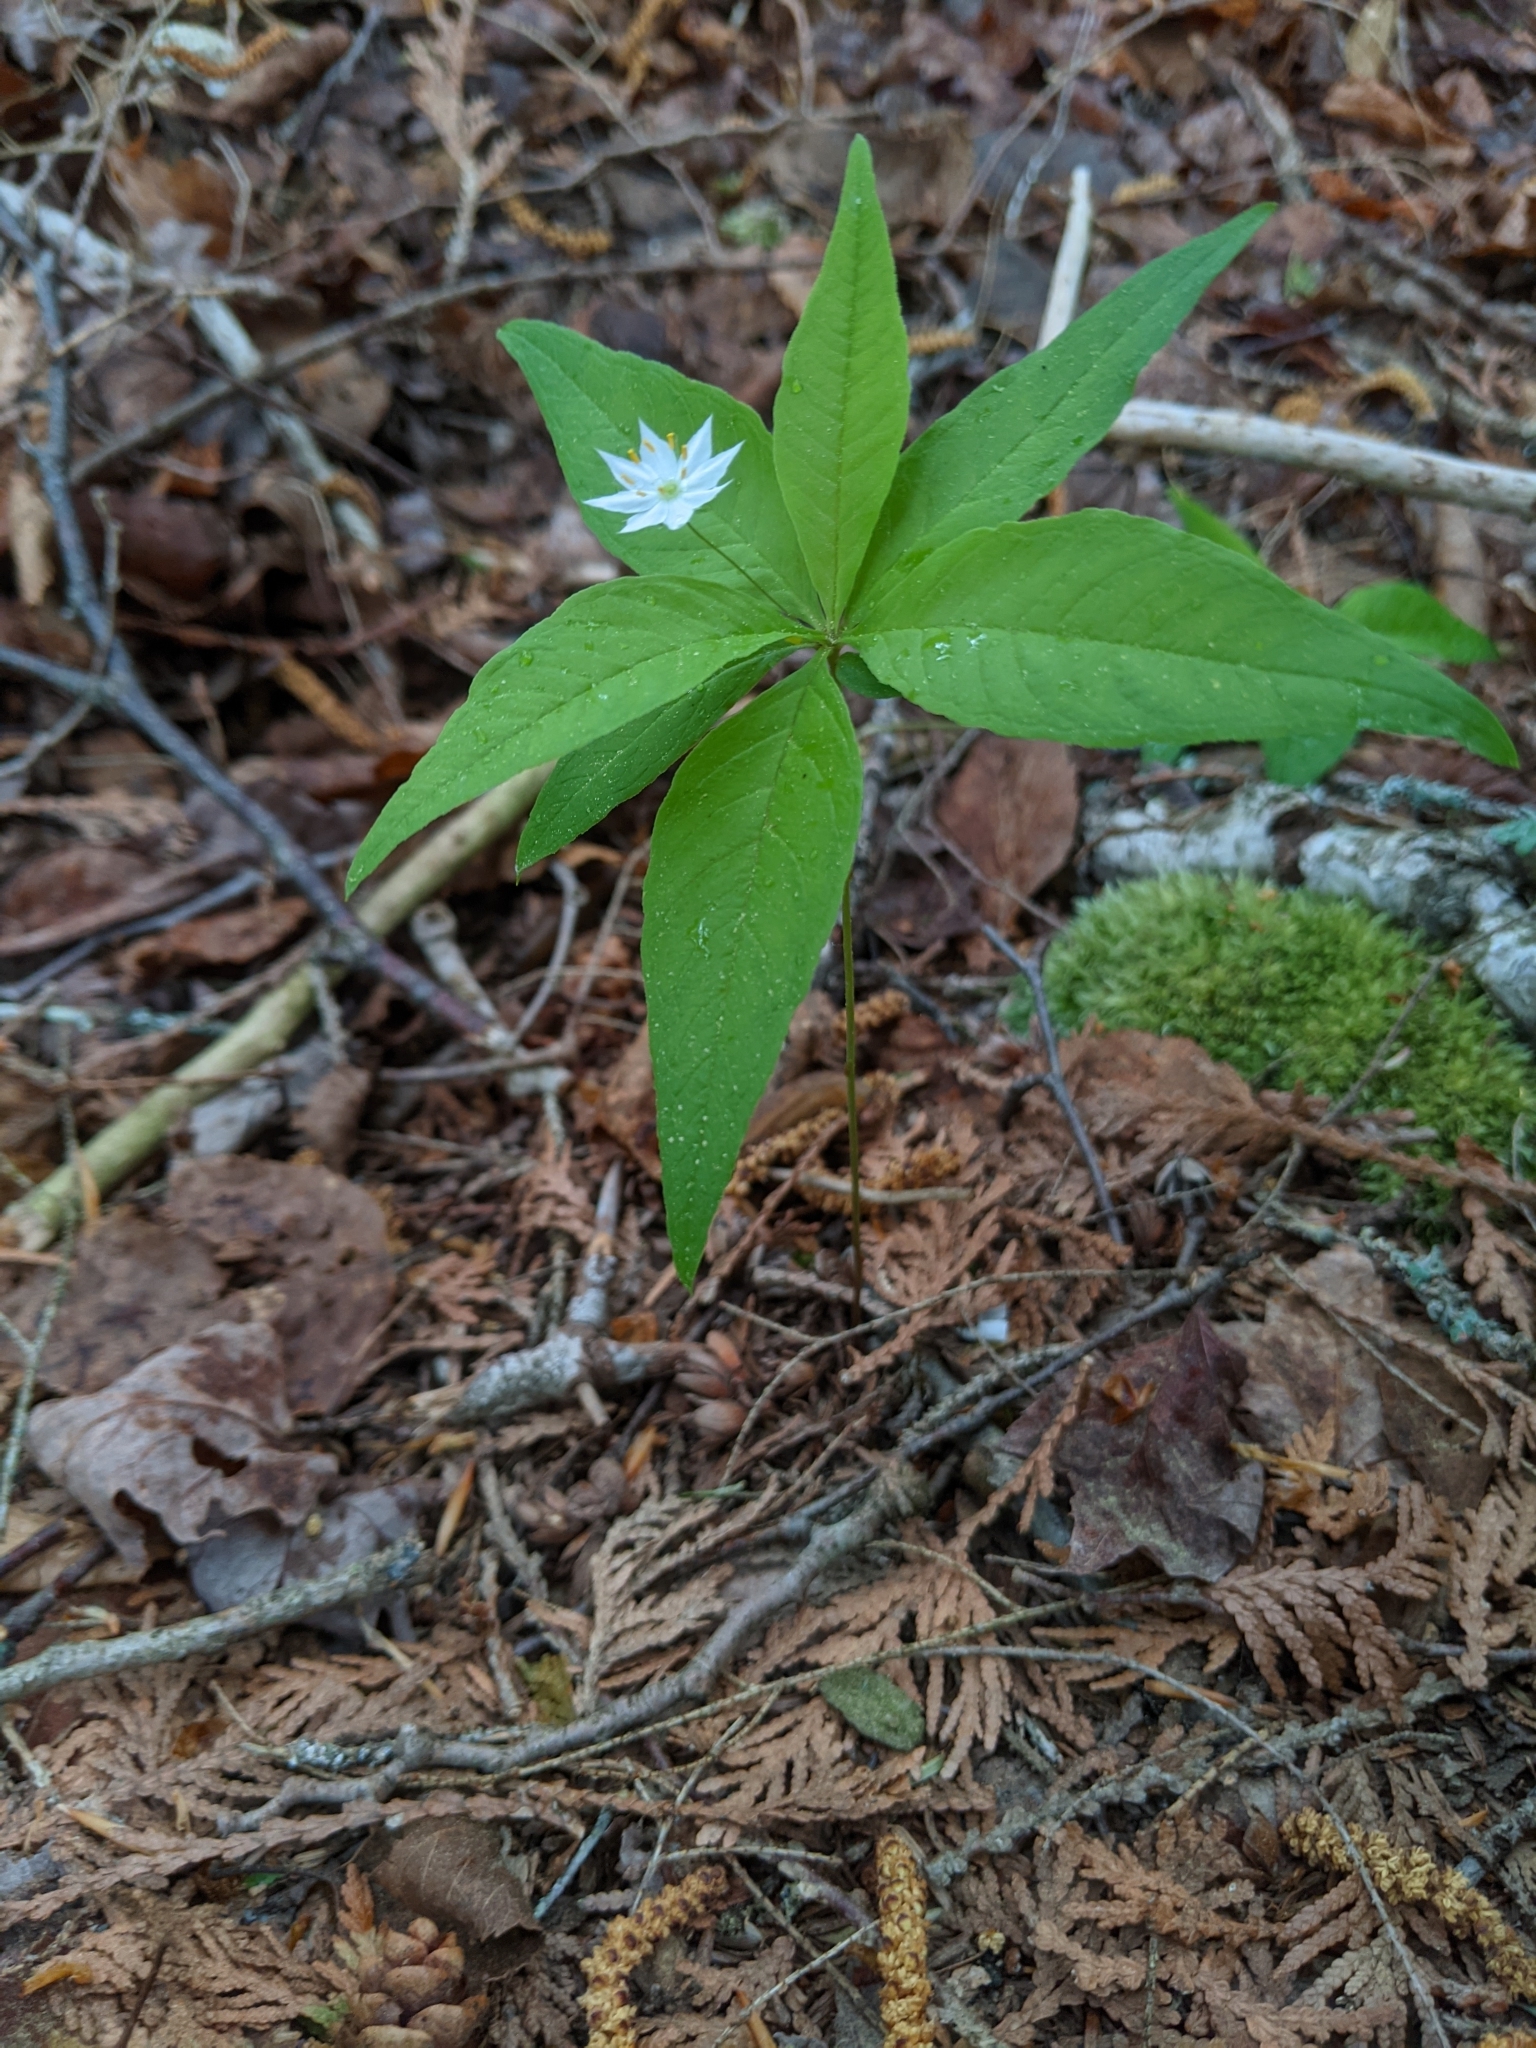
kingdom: Plantae
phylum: Tracheophyta
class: Magnoliopsida
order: Ericales
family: Primulaceae
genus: Lysimachia
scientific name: Lysimachia borealis
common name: American starflower
